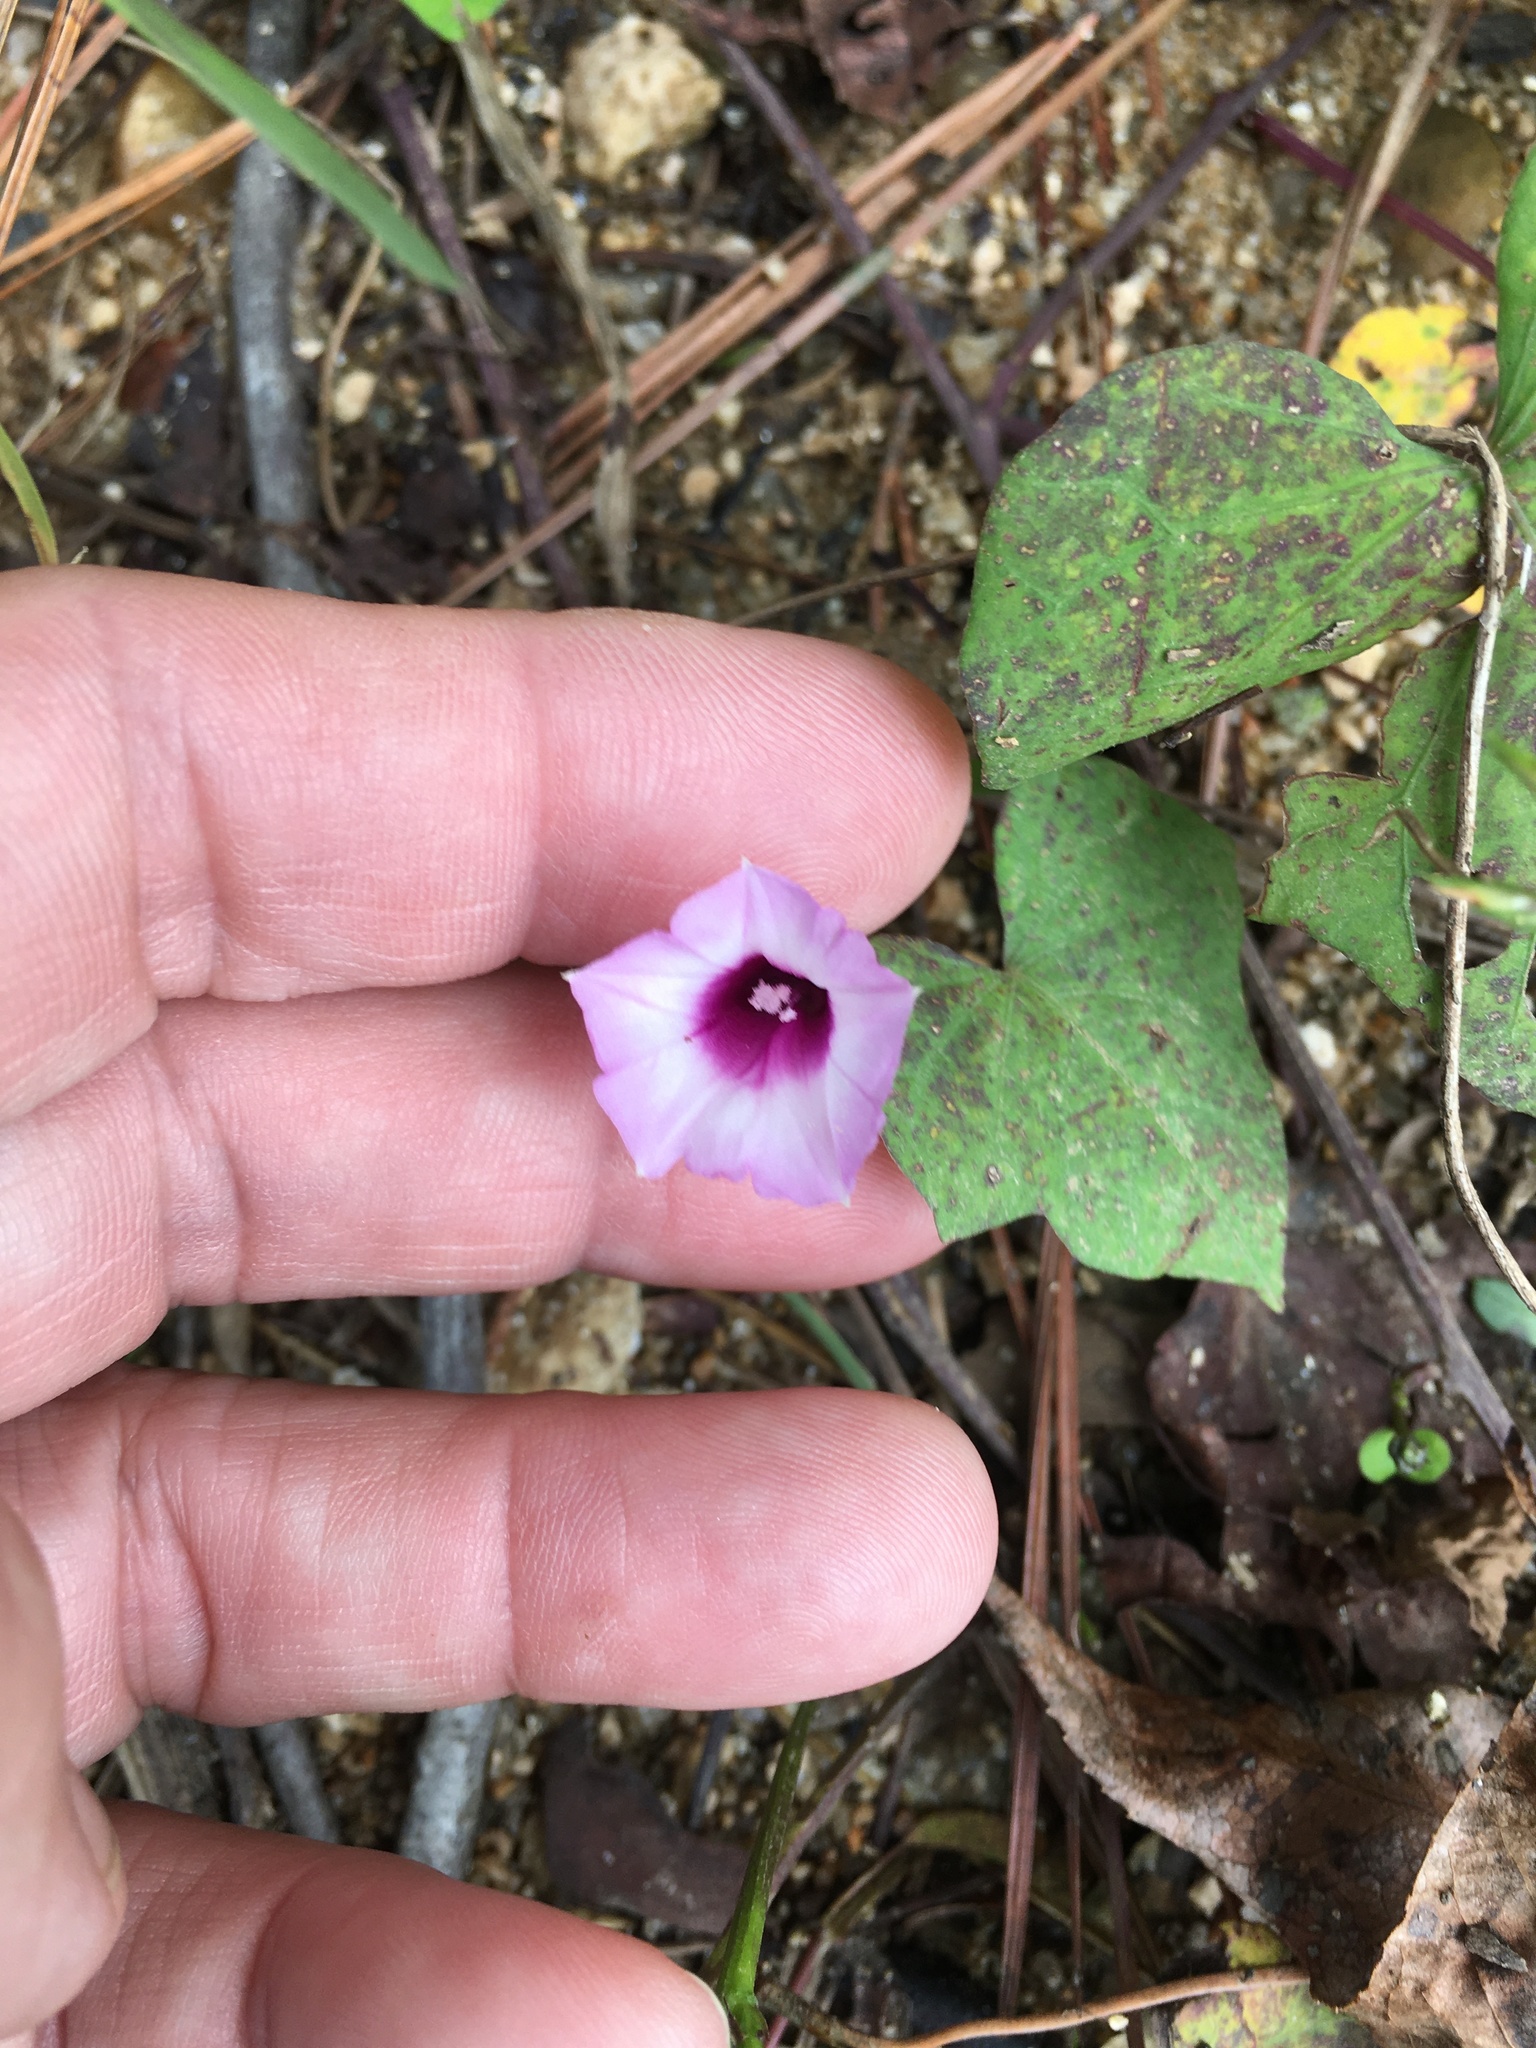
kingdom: Plantae
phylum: Tracheophyta
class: Magnoliopsida
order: Solanales
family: Convolvulaceae
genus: Ipomoea
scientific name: Ipomoea triloba
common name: Little-bell
